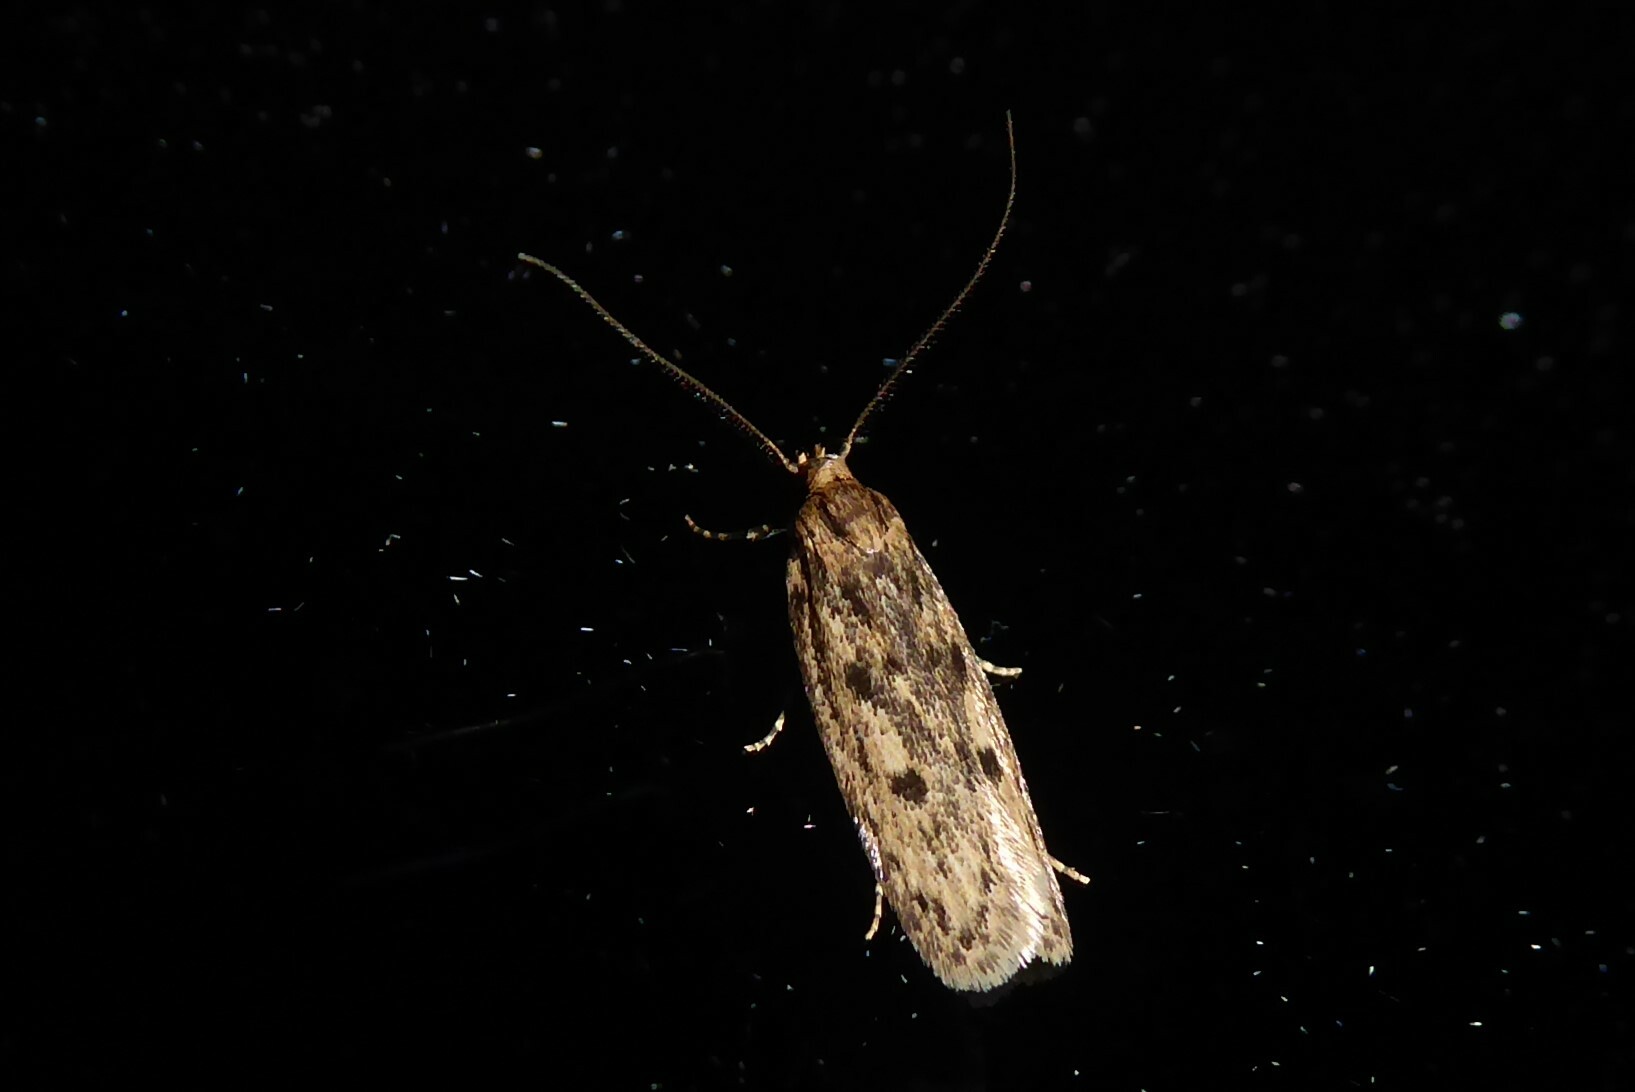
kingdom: Animalia
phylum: Arthropoda
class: Insecta
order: Lepidoptera
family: Oecophoridae
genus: Hofmannophila
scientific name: Hofmannophila pseudospretella
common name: Brown house moth
